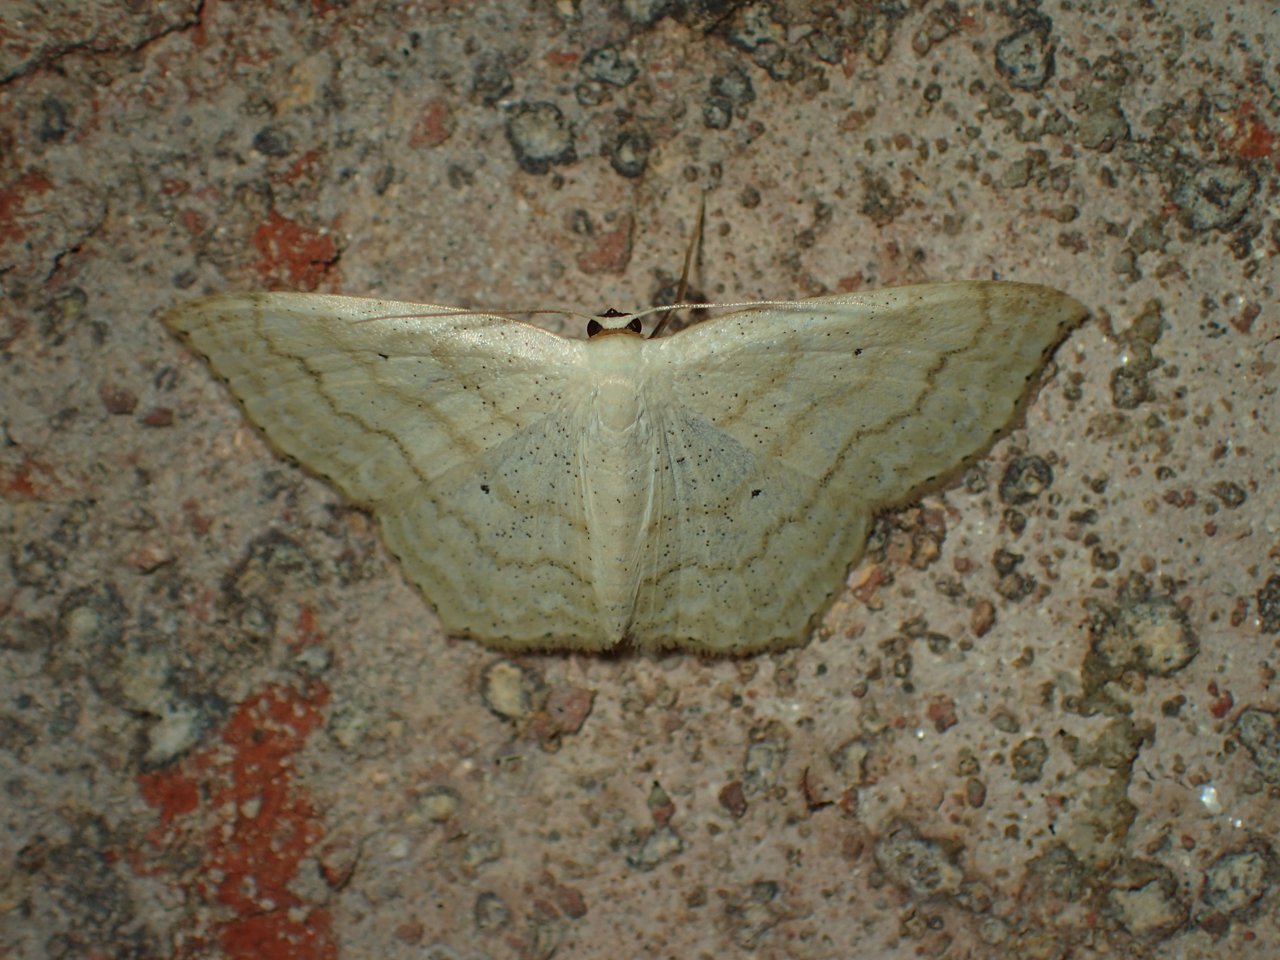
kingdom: Animalia
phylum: Arthropoda
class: Insecta
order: Lepidoptera
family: Geometridae
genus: Scopula
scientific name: Scopula limboundata
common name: Large lace border
